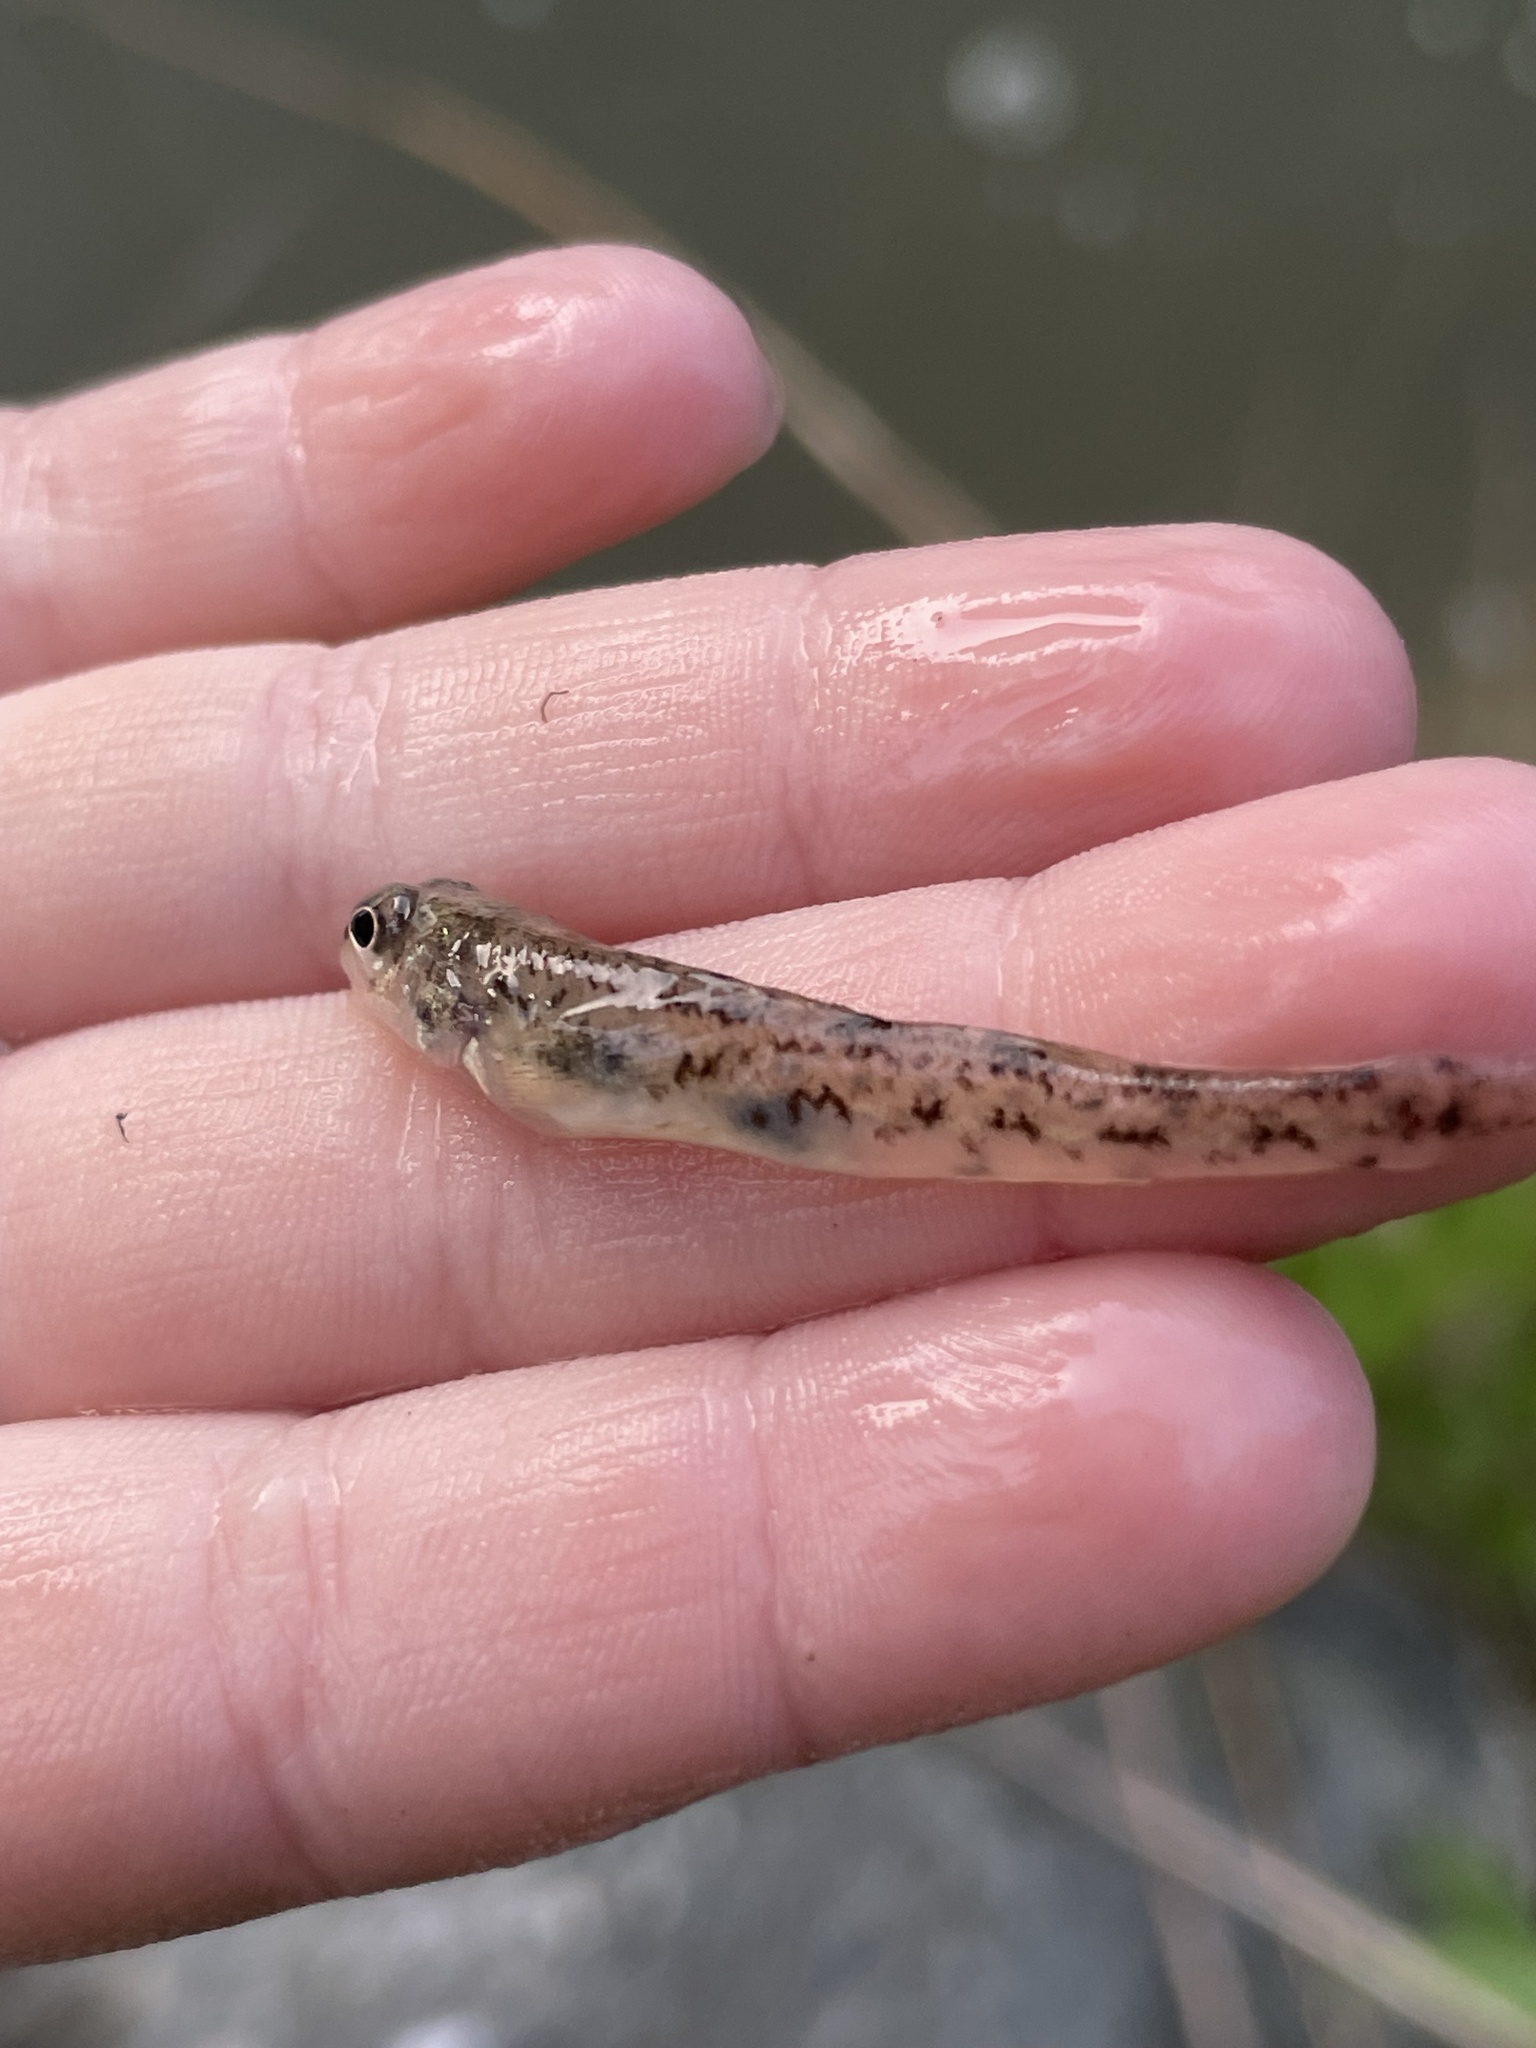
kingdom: Animalia
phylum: Chordata
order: Perciformes
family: Percidae
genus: Etheostoma
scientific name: Etheostoma nigrum
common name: Johnny darter
